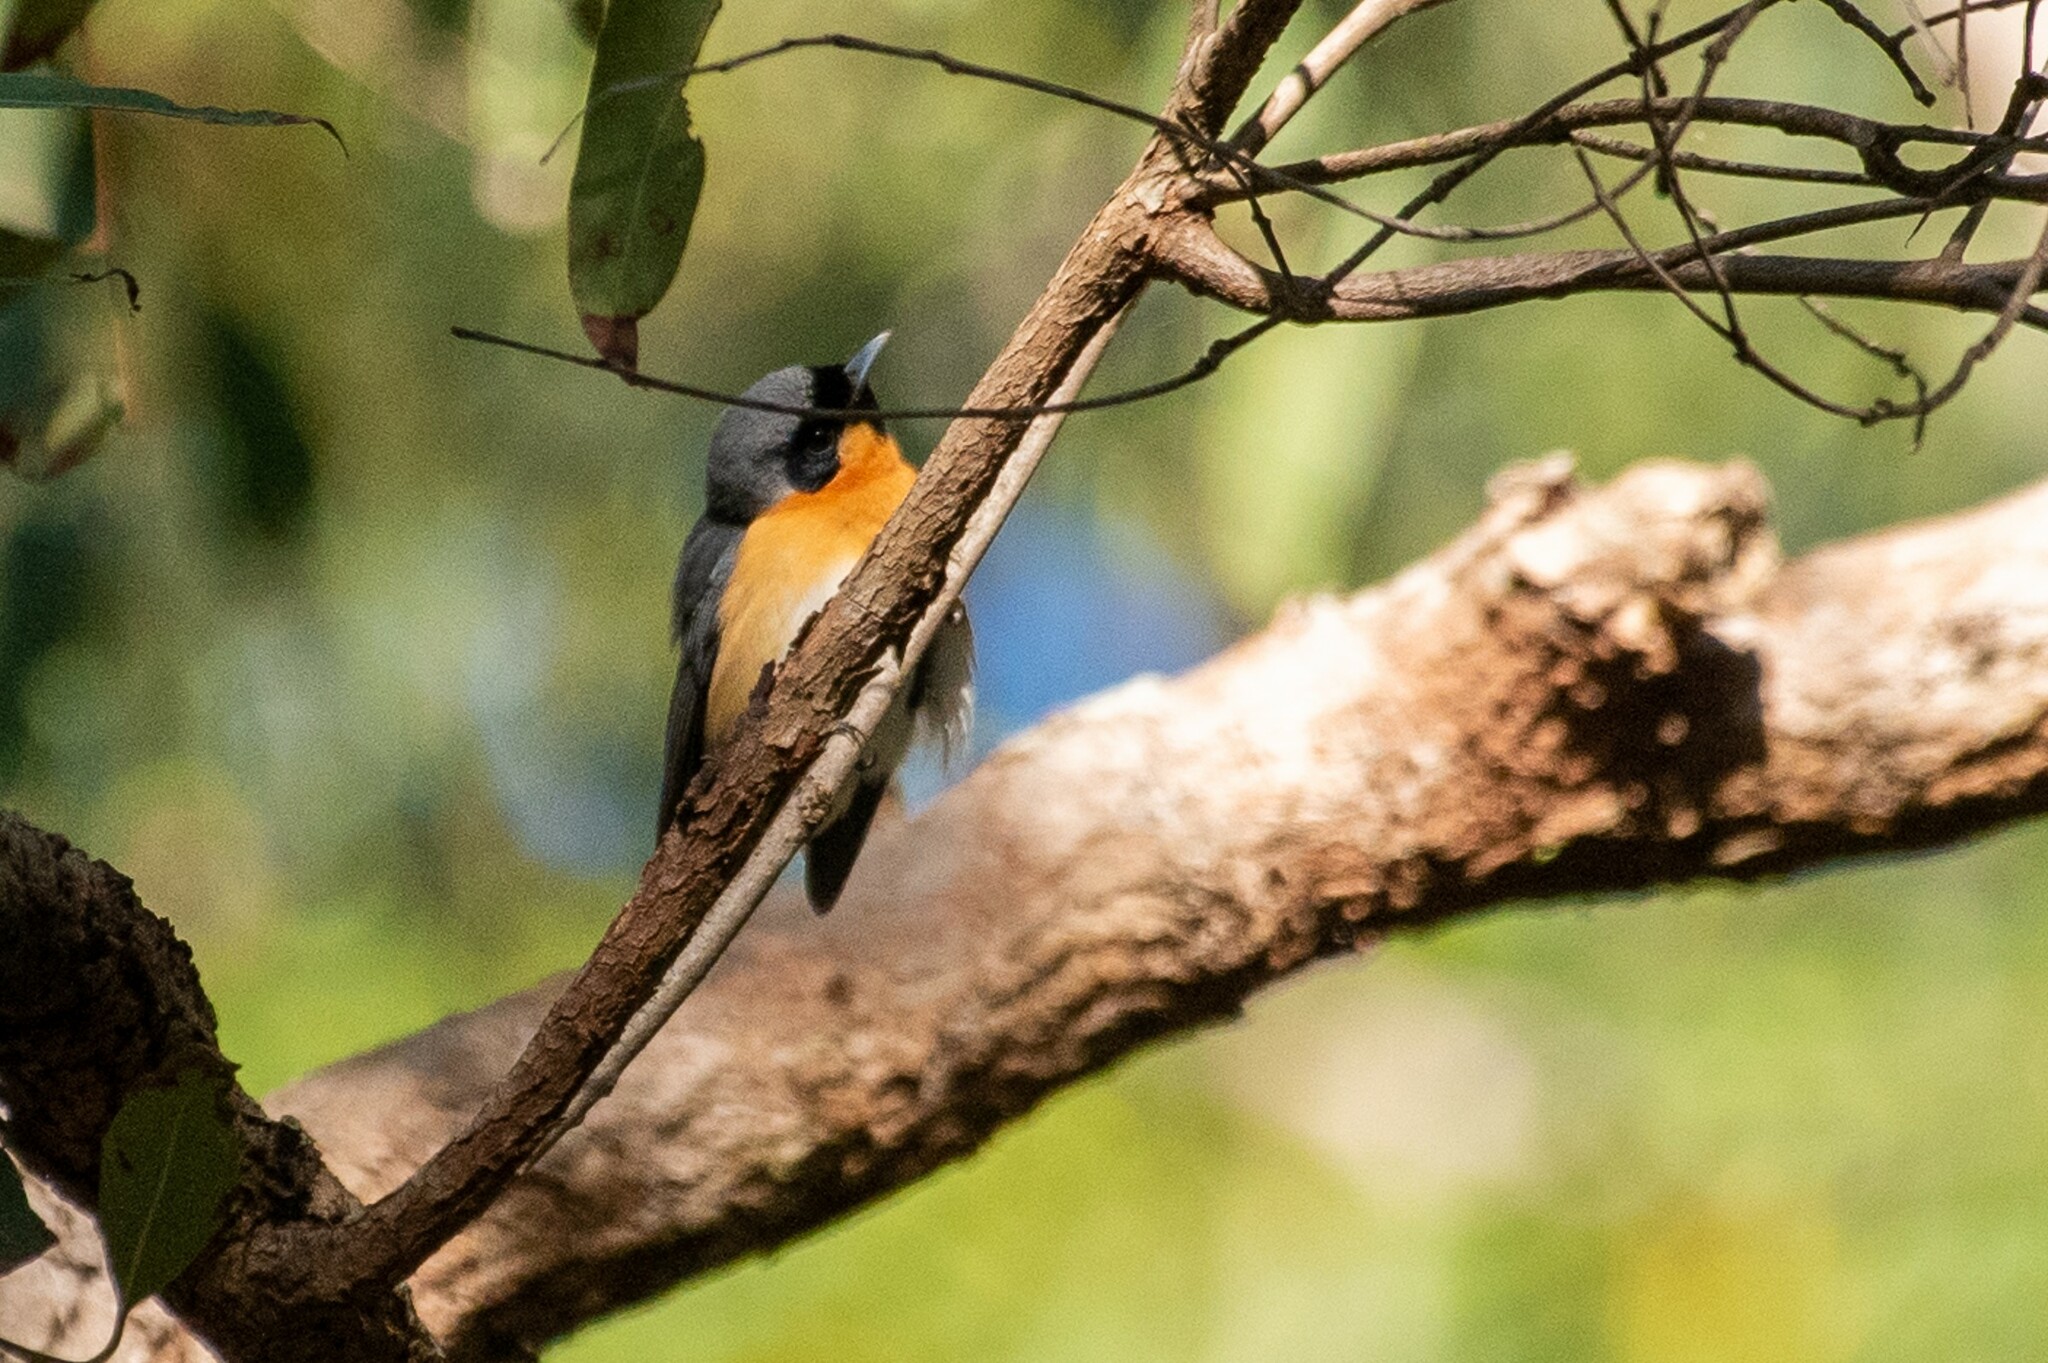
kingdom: Animalia
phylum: Chordata
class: Aves
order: Passeriformes
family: Monarchidae
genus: Symposiachrus
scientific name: Symposiachrus trivirgatus
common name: Spectacled monarch
